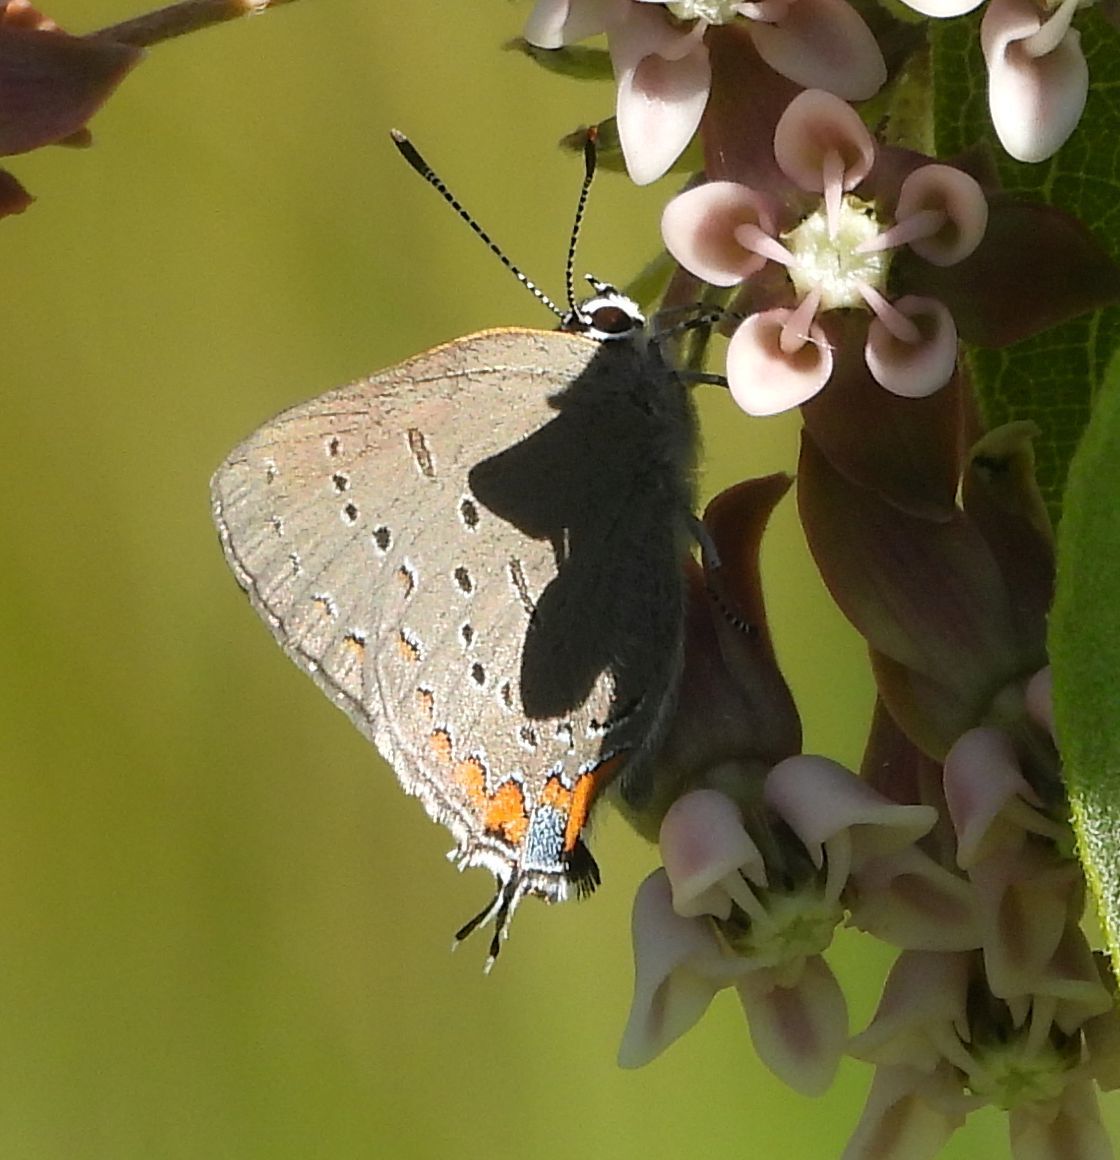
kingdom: Animalia
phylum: Arthropoda
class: Insecta
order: Lepidoptera
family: Lycaenidae
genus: Strymon
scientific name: Strymon acadica
